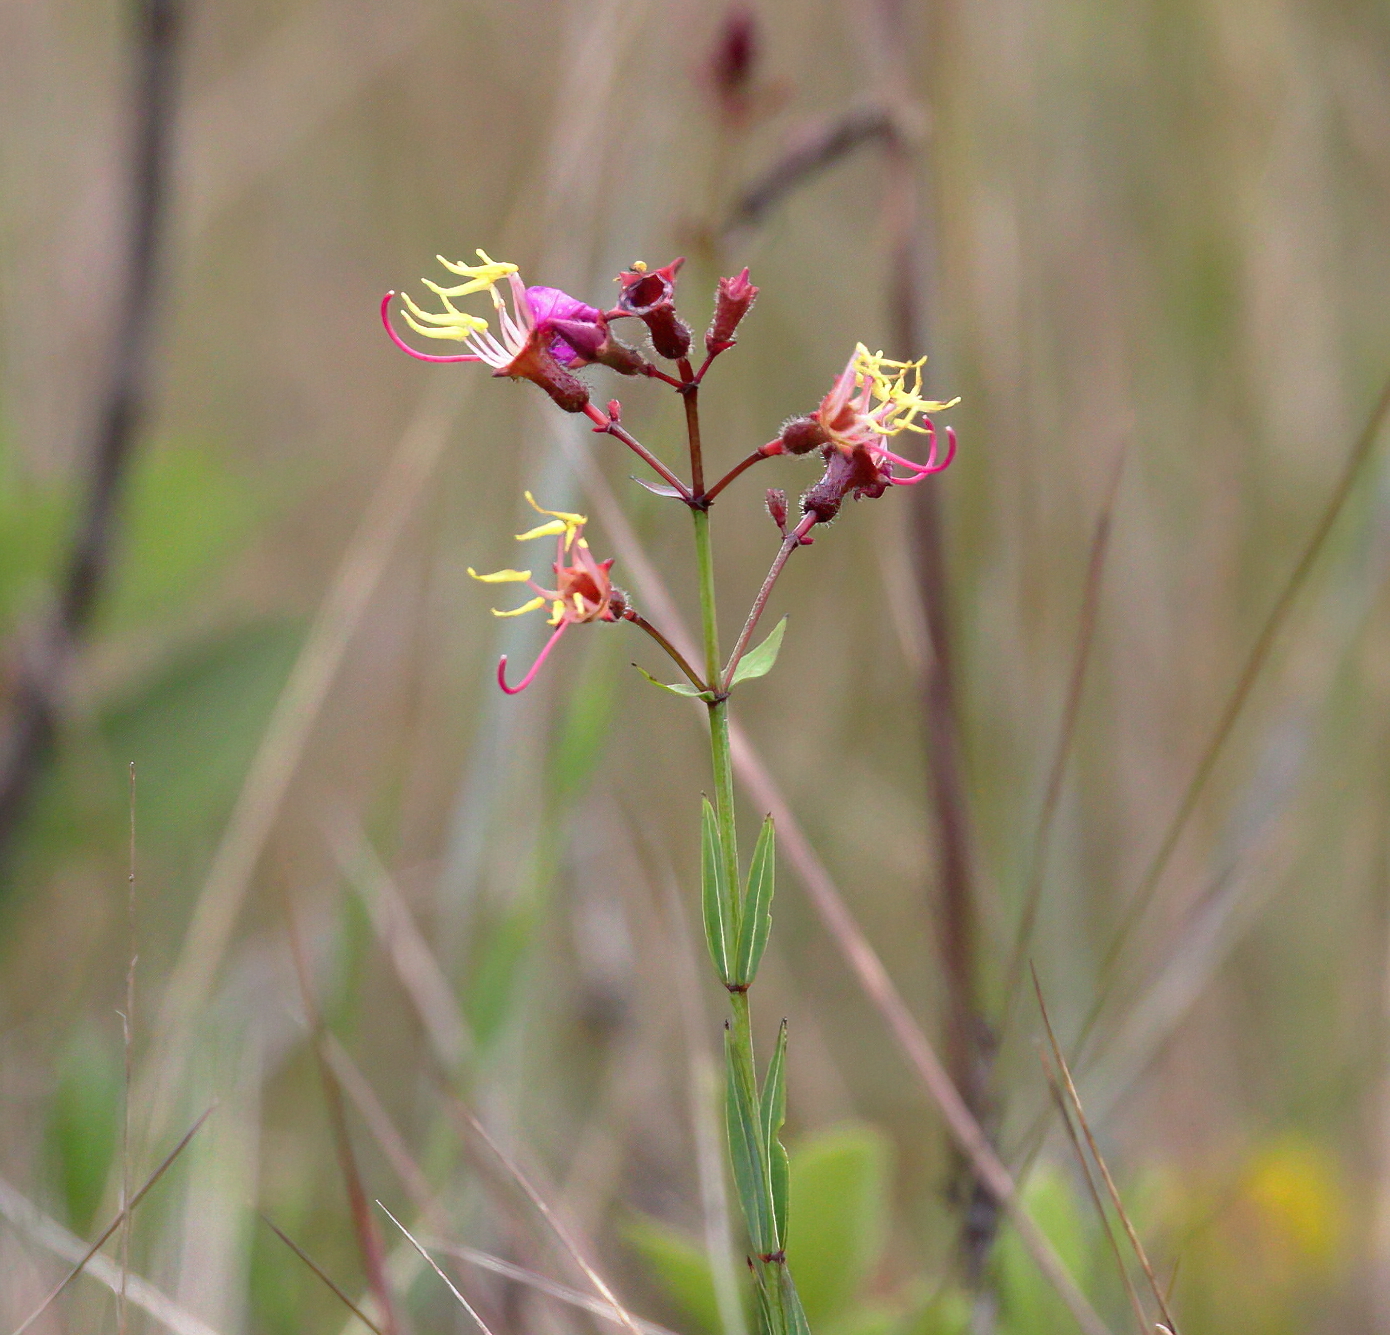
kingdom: Plantae
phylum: Tracheophyta
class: Magnoliopsida
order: Myrtales
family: Melastomataceae
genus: Rhexia
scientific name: Rhexia alifanus
